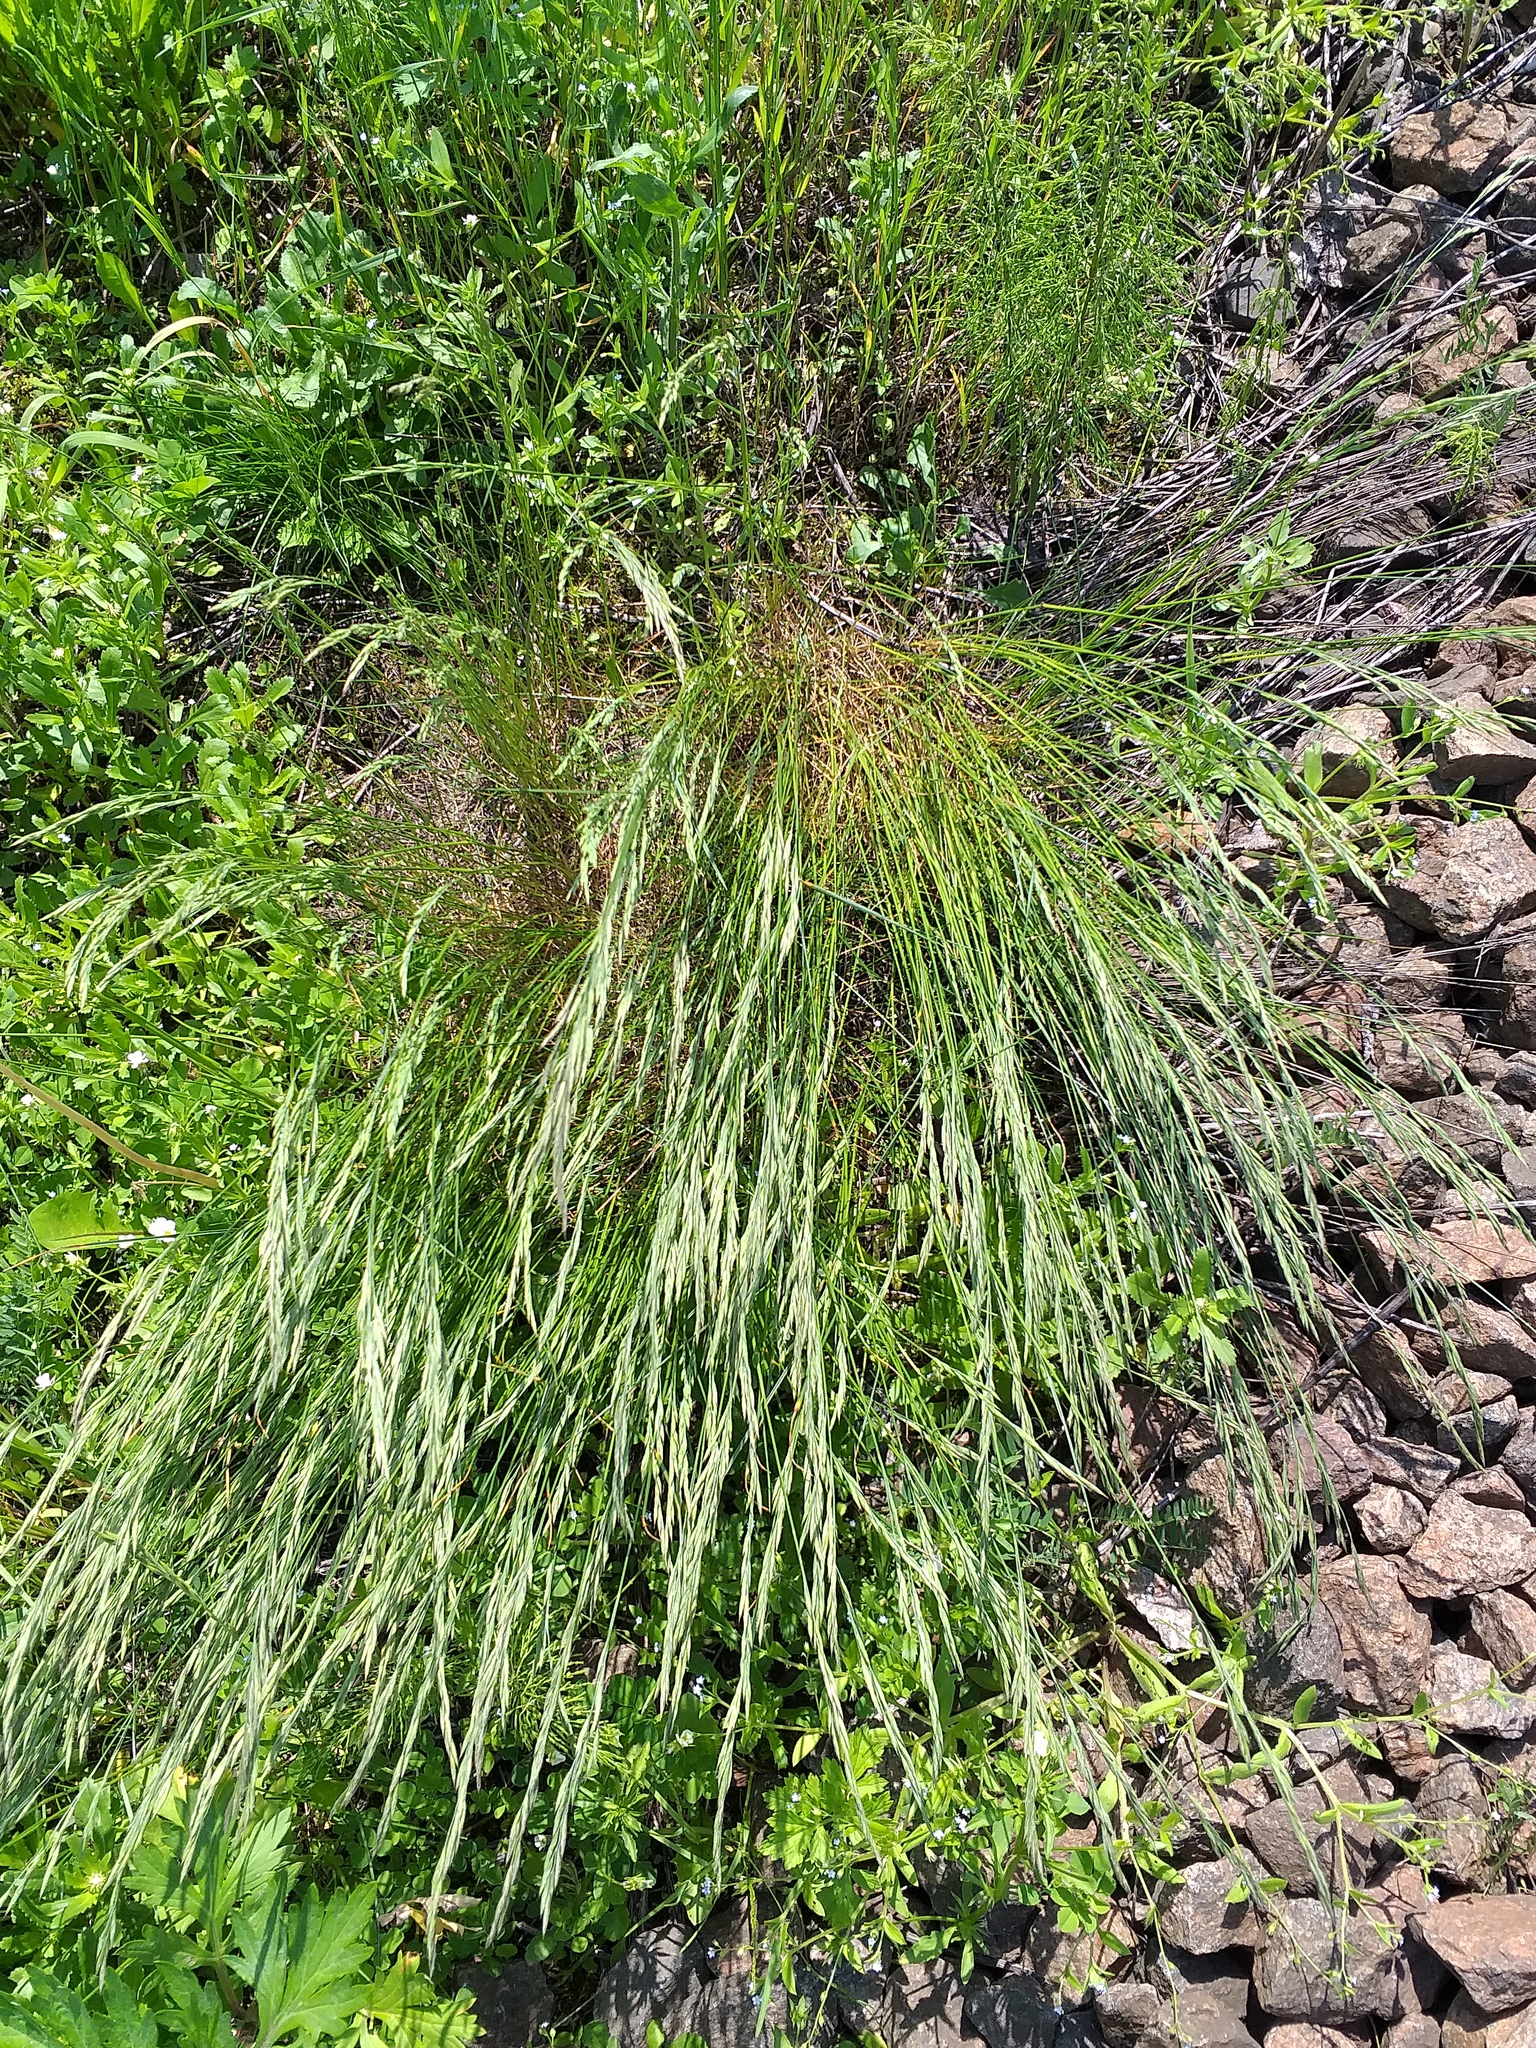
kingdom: Plantae
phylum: Tracheophyta
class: Liliopsida
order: Poales
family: Poaceae
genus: Festuca
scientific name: Festuca rubra
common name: Red fescue
